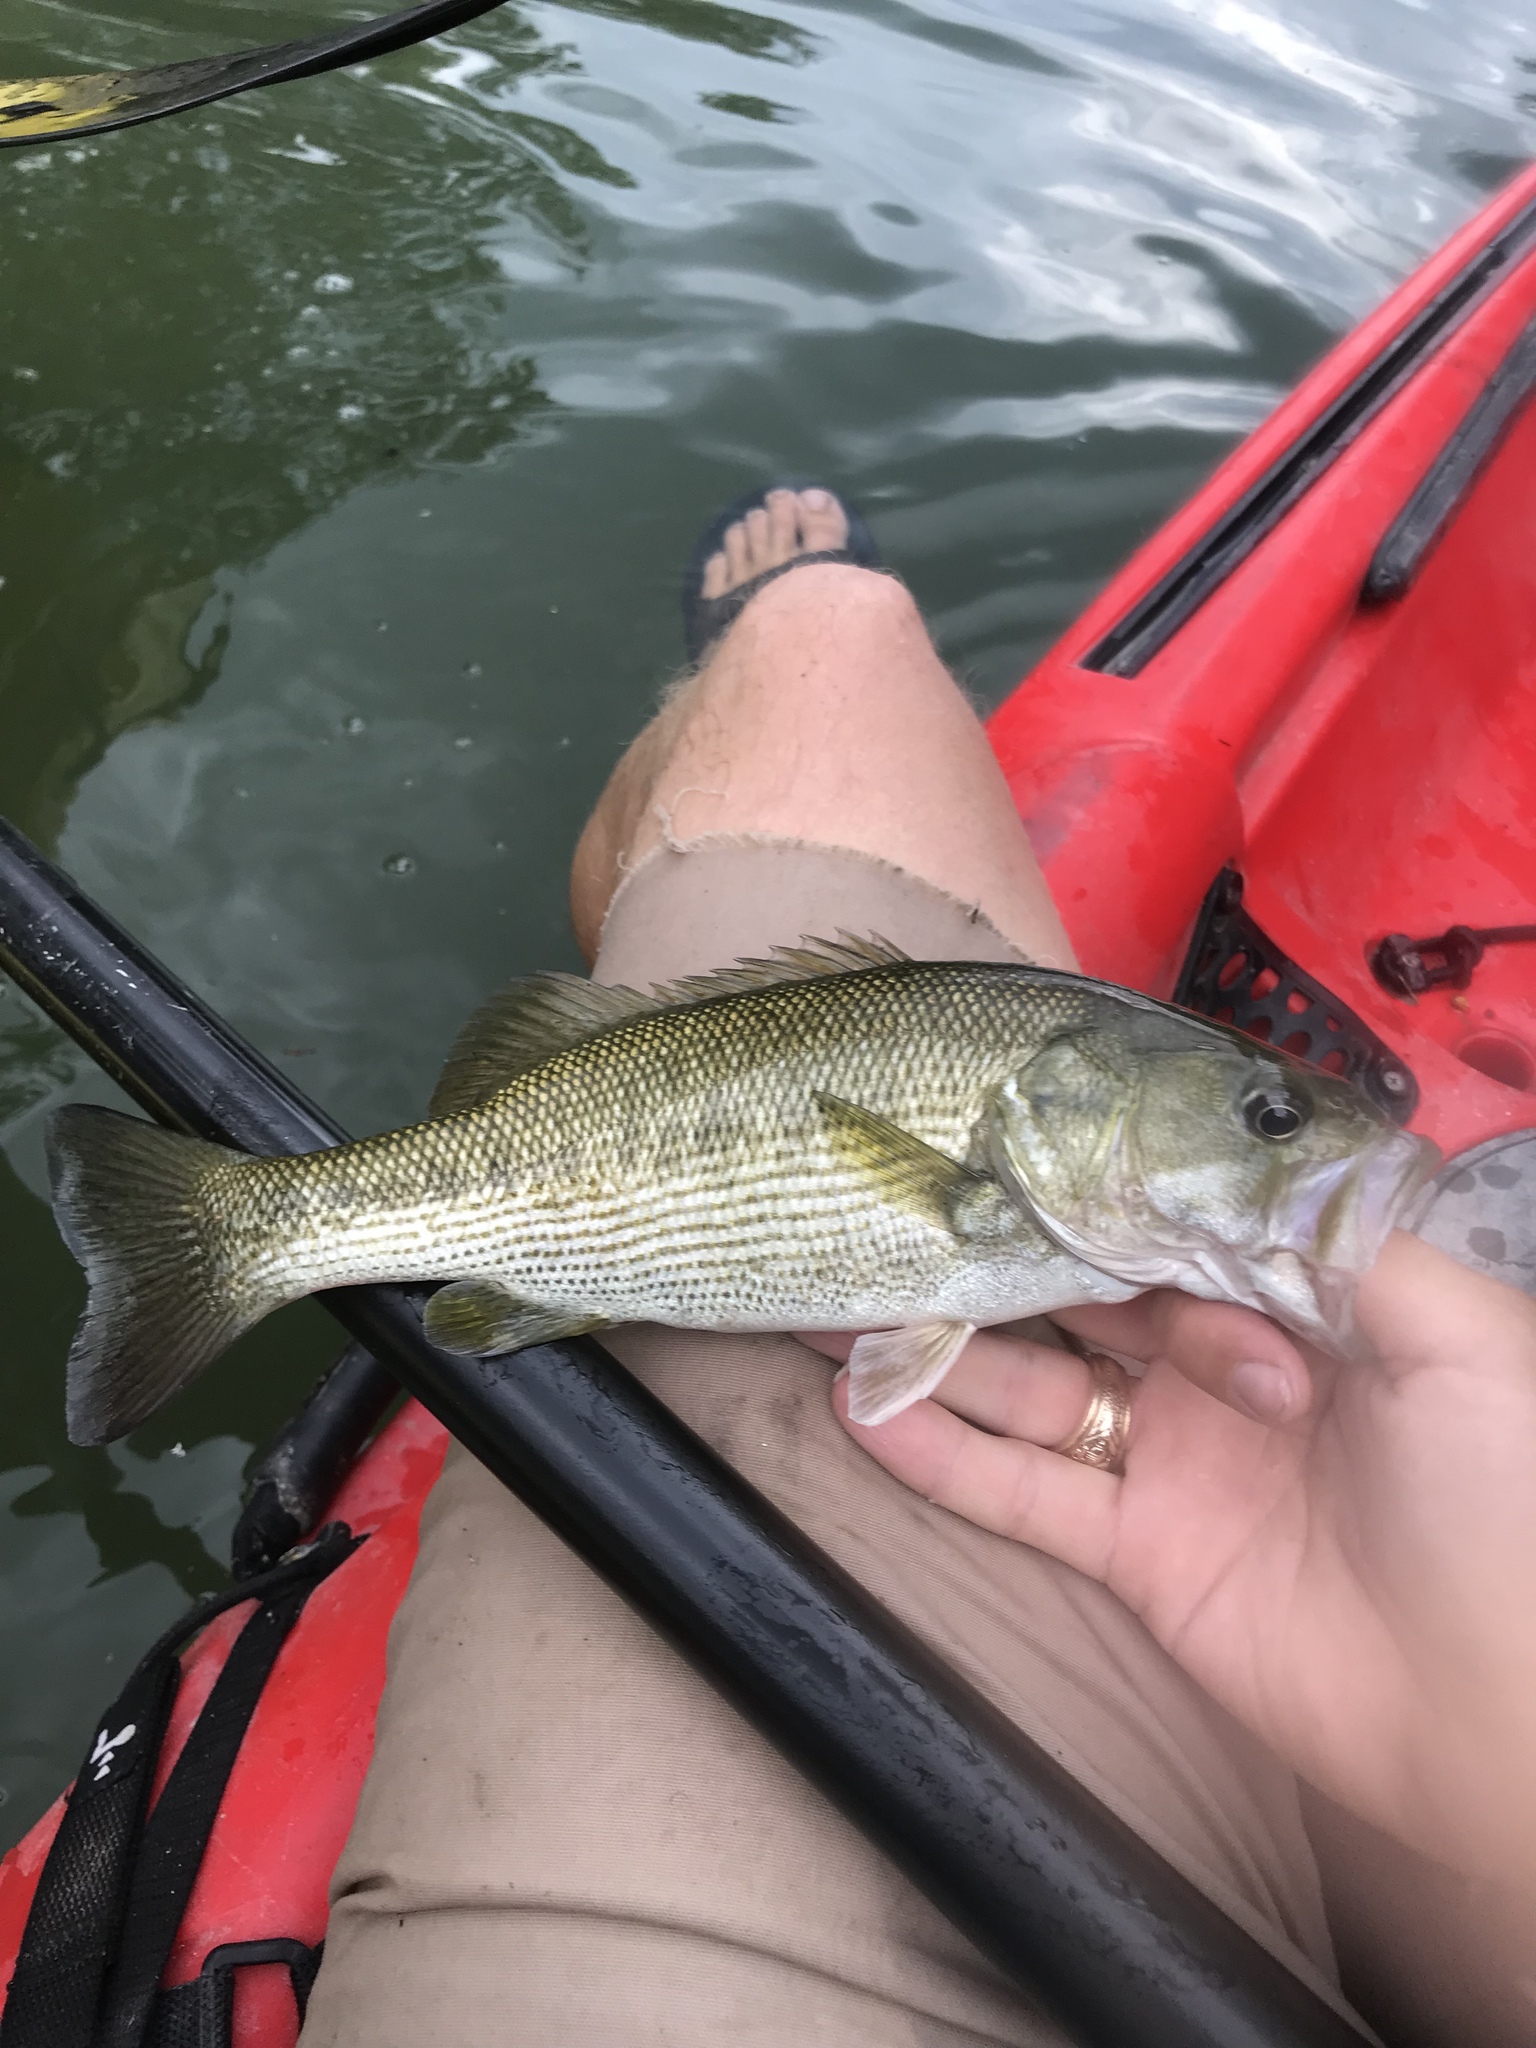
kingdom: Animalia
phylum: Chordata
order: Perciformes
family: Centrarchidae
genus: Micropterus
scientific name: Micropterus treculii
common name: Guadalupe bass
